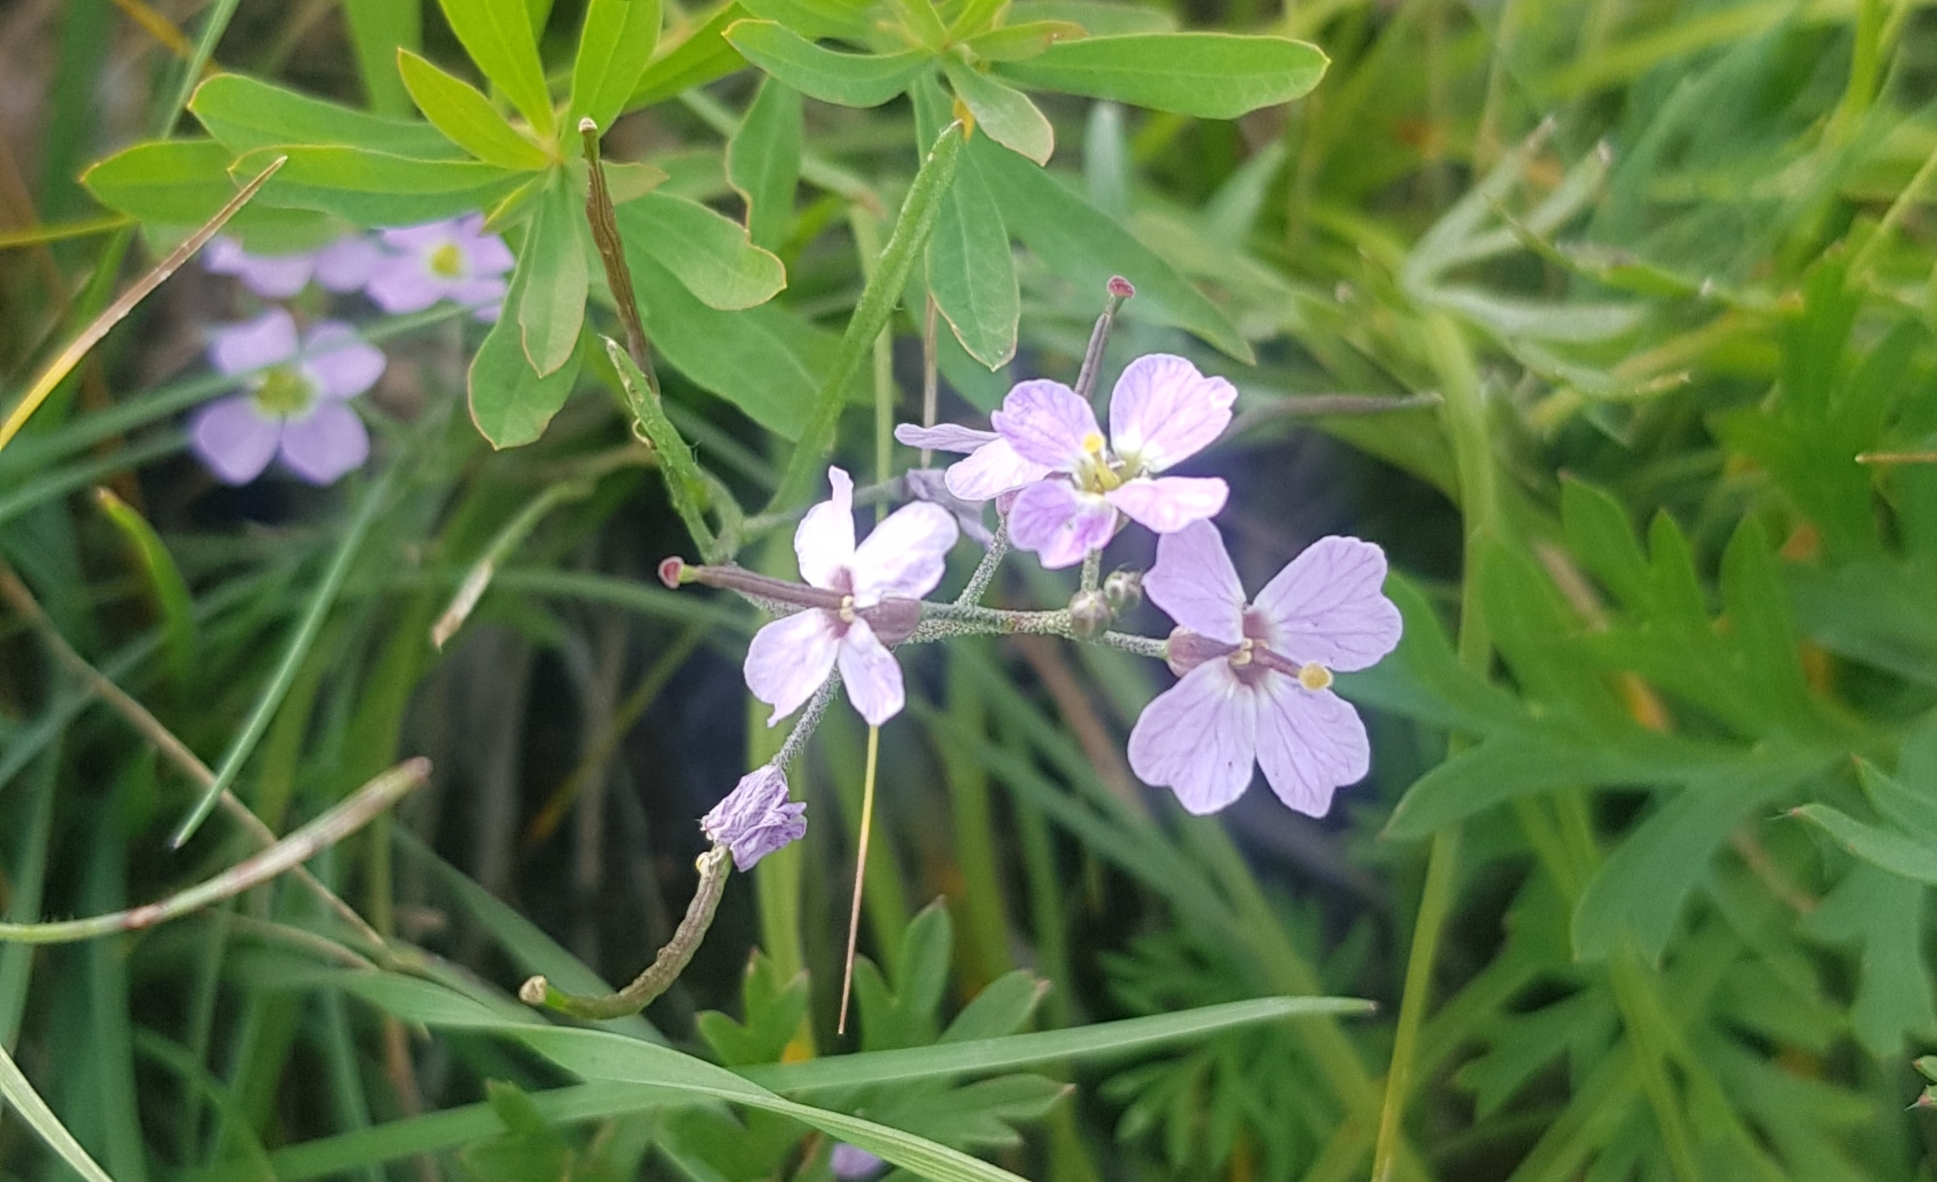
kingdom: Plantae
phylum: Tracheophyta
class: Magnoliopsida
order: Brassicales
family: Brassicaceae
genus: Dontostemon
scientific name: Dontostemon integrifolius
